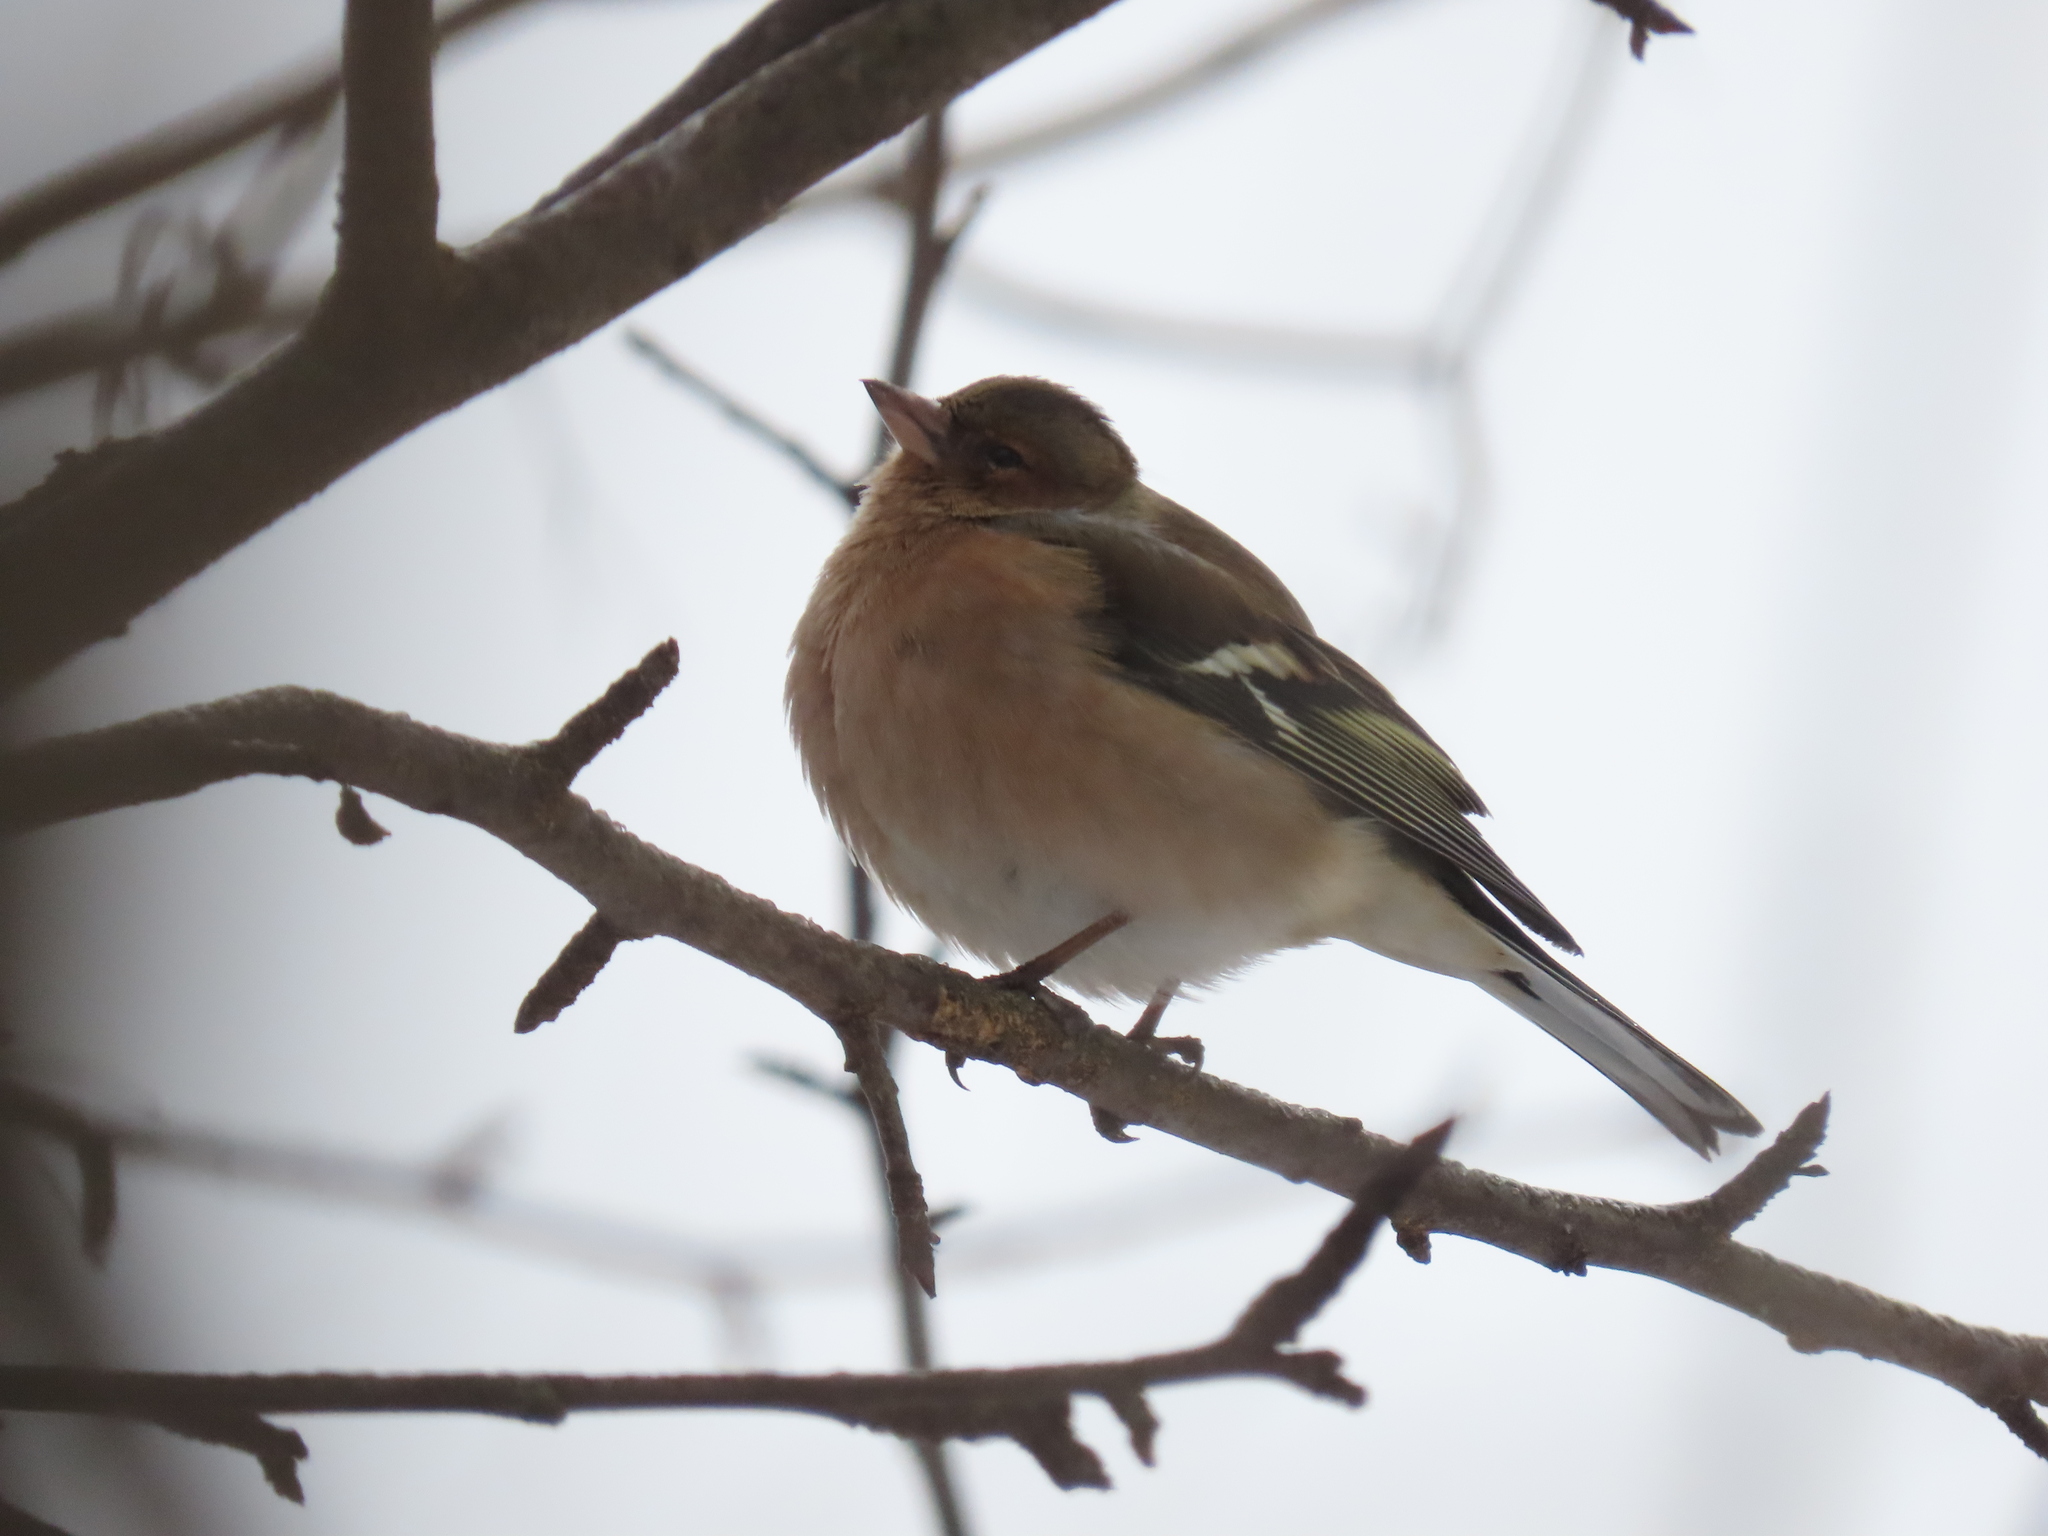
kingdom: Animalia
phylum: Chordata
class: Aves
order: Passeriformes
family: Fringillidae
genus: Fringilla
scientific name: Fringilla coelebs
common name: Common chaffinch
